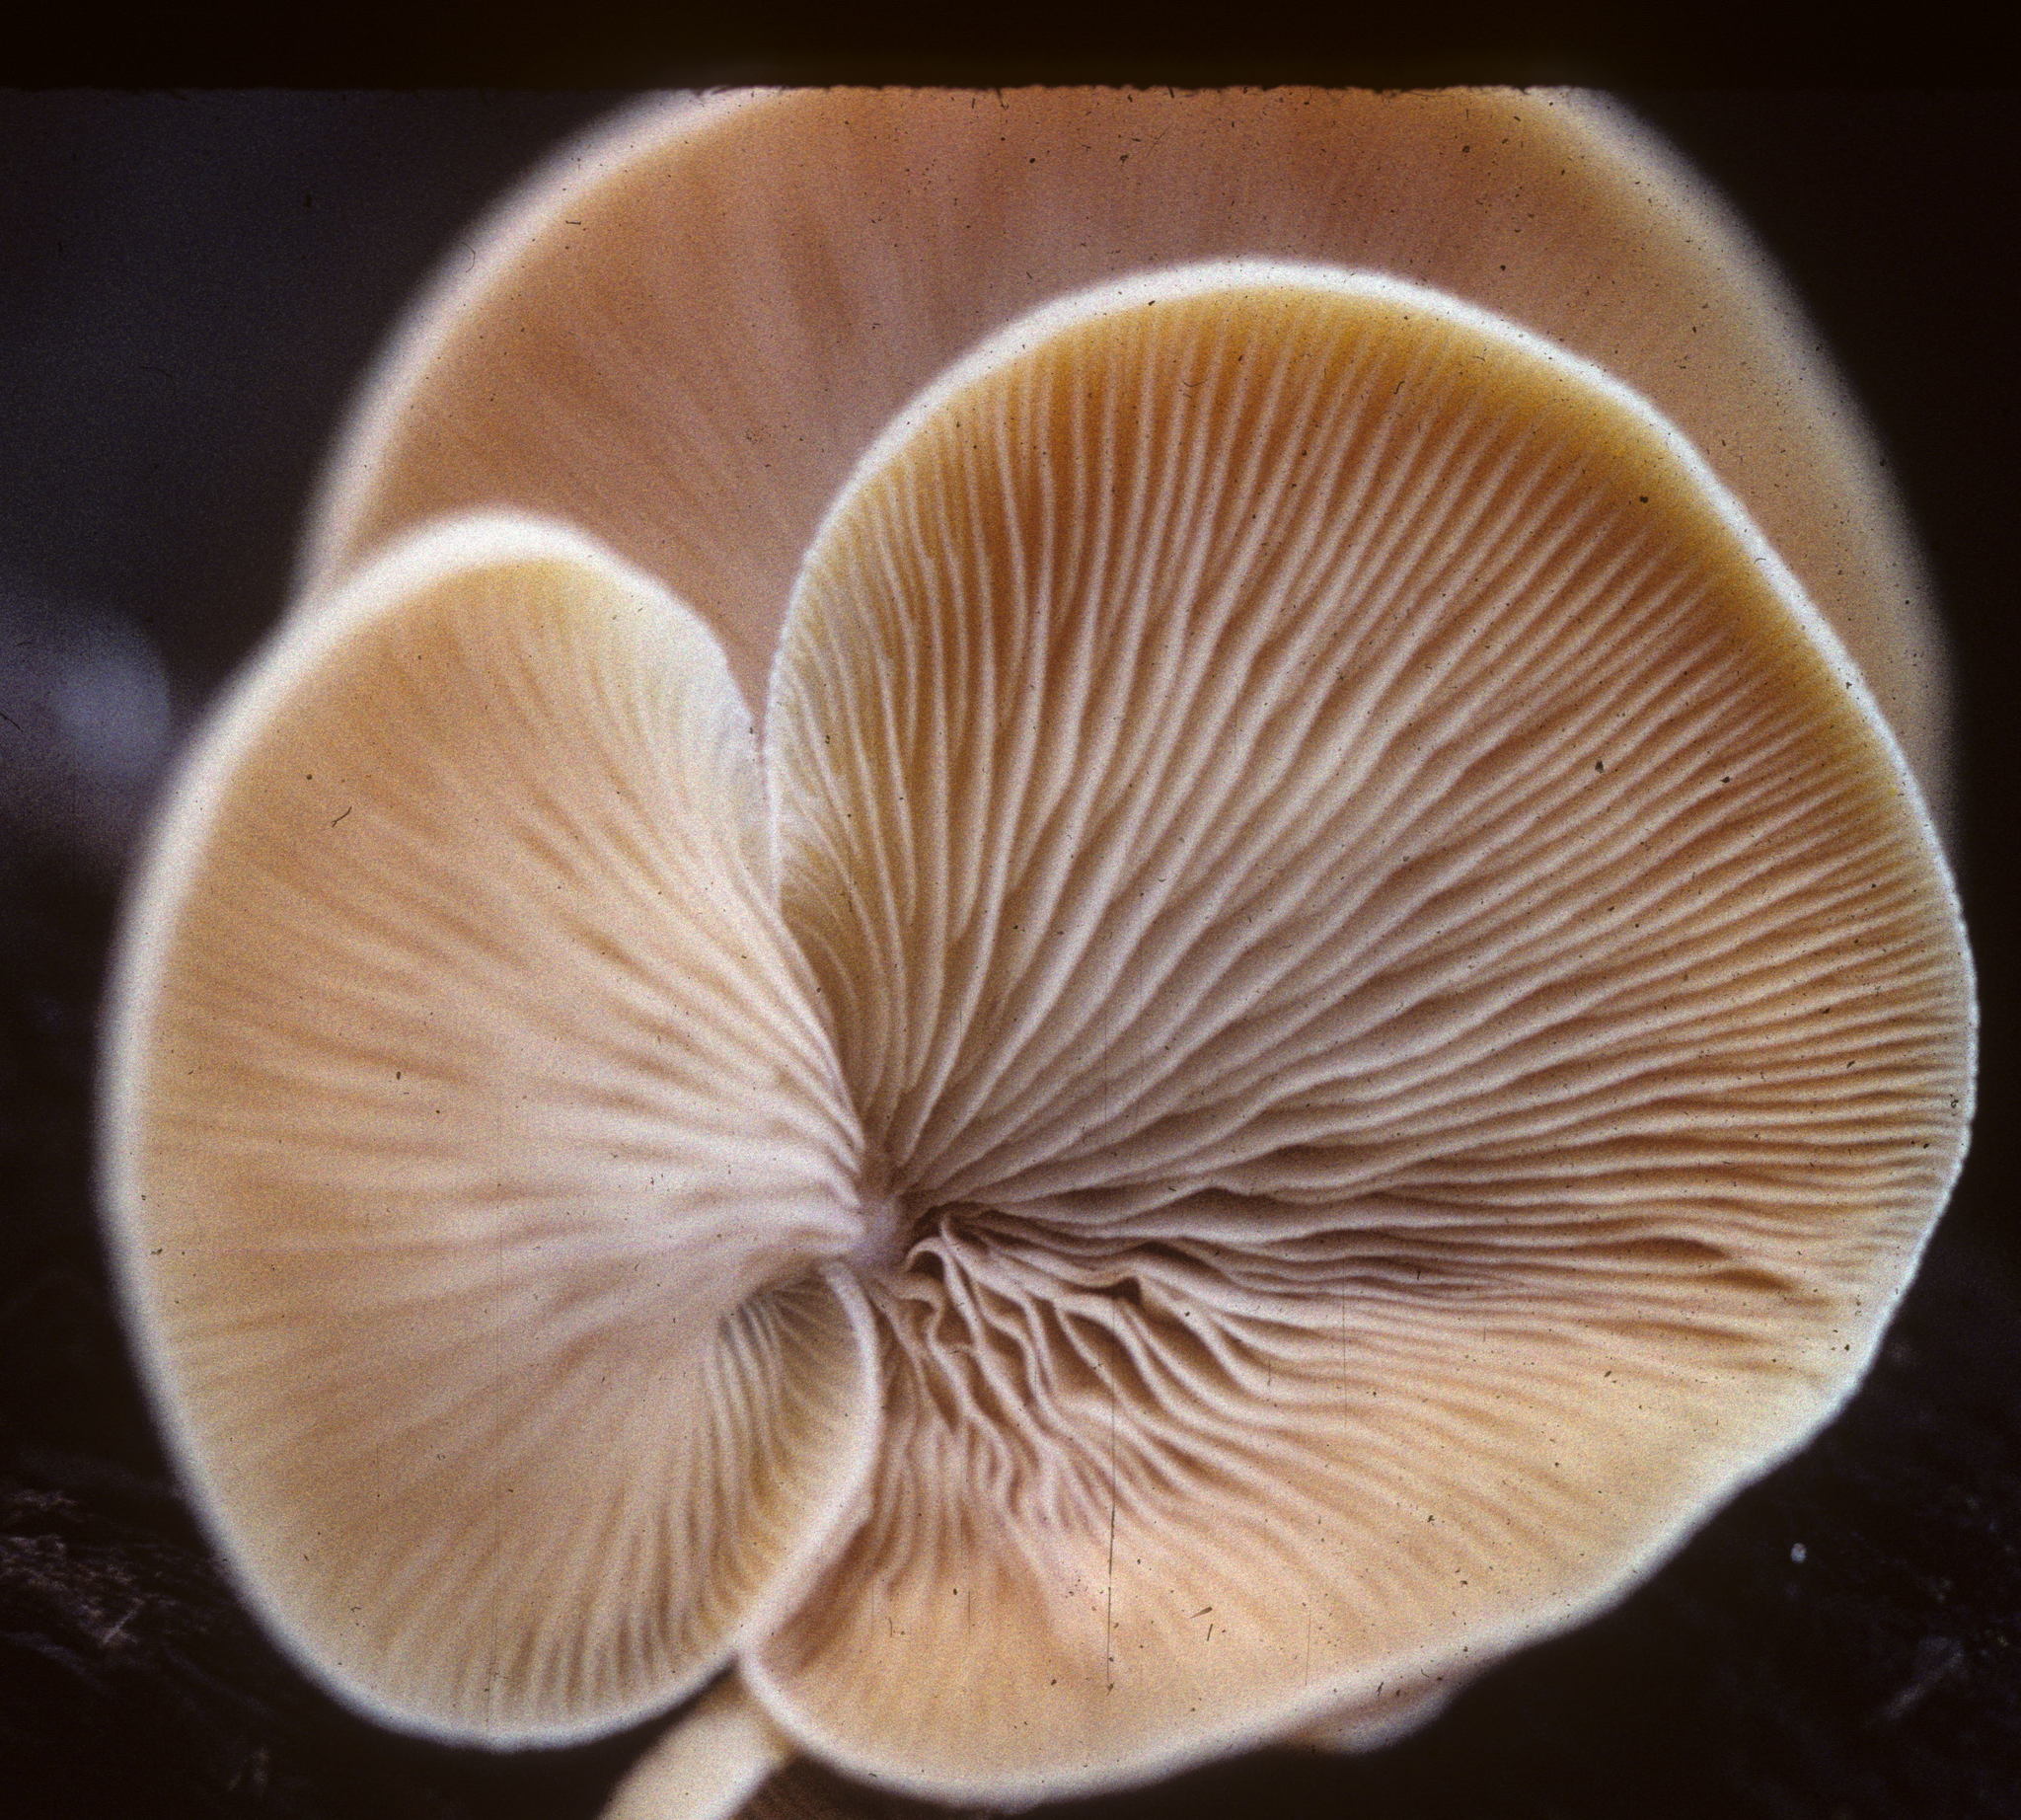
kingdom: Fungi
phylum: Basidiomycota
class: Agaricomycetes
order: Agaricales
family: Crepidotaceae
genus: Crepidotus
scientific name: Crepidotus crocophyllus
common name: Saffron oysterling
